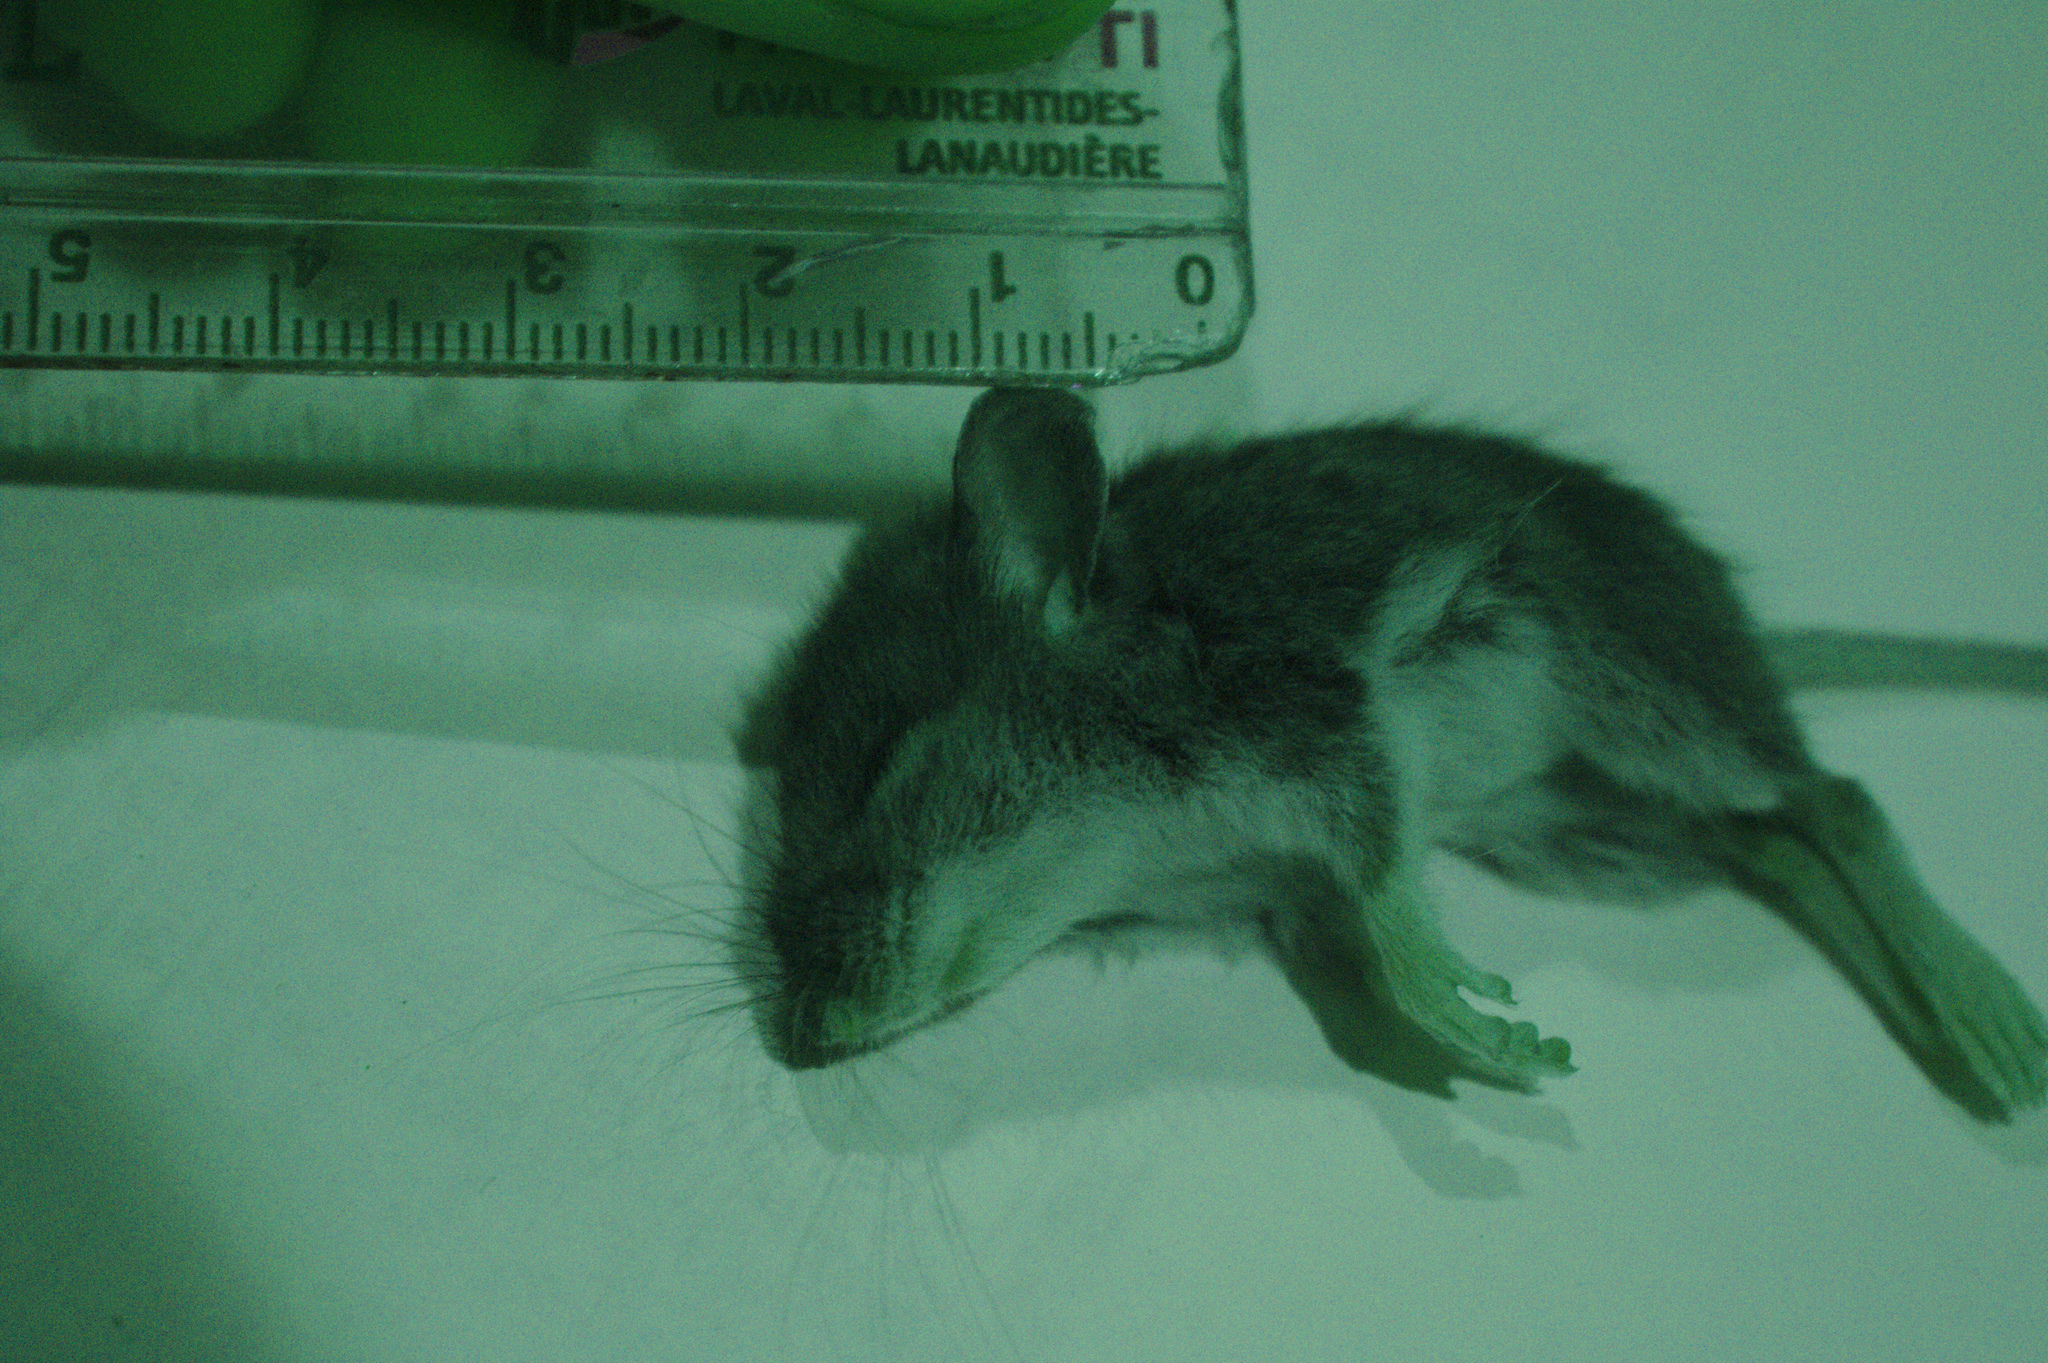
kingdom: Animalia
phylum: Chordata
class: Mammalia
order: Rodentia
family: Cricetidae
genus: Peromyscus
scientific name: Peromyscus
